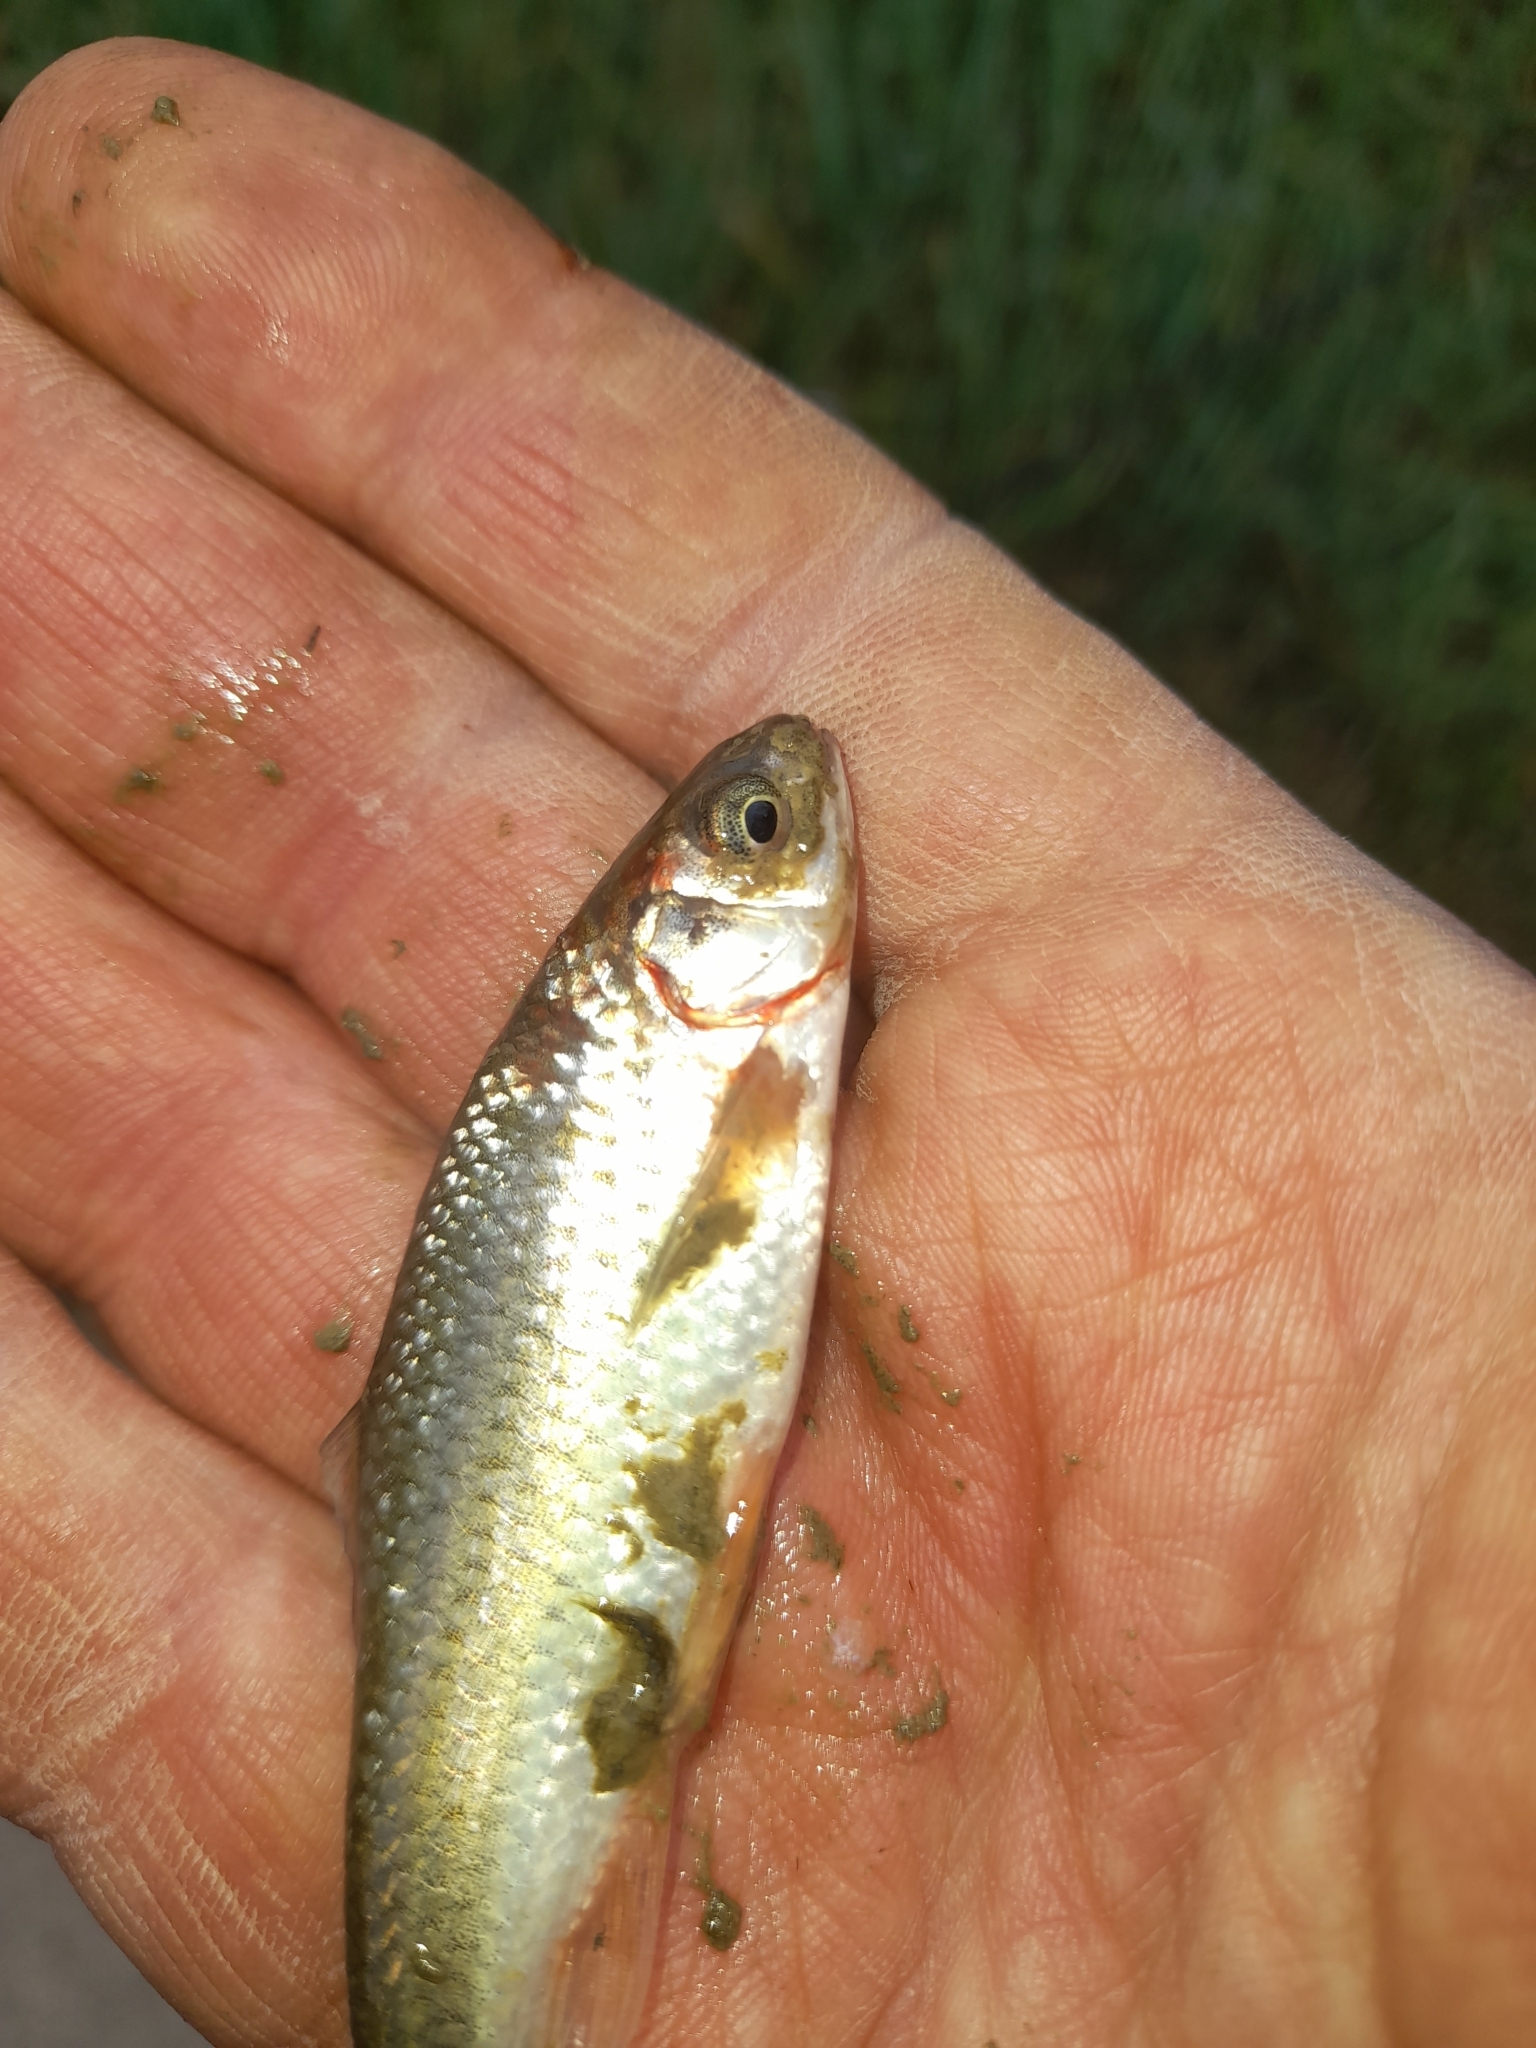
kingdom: Animalia
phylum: Chordata
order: Cypriniformes
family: Cyprinidae
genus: Sarmarutilus
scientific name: Sarmarutilus rubilio
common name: Rovella
